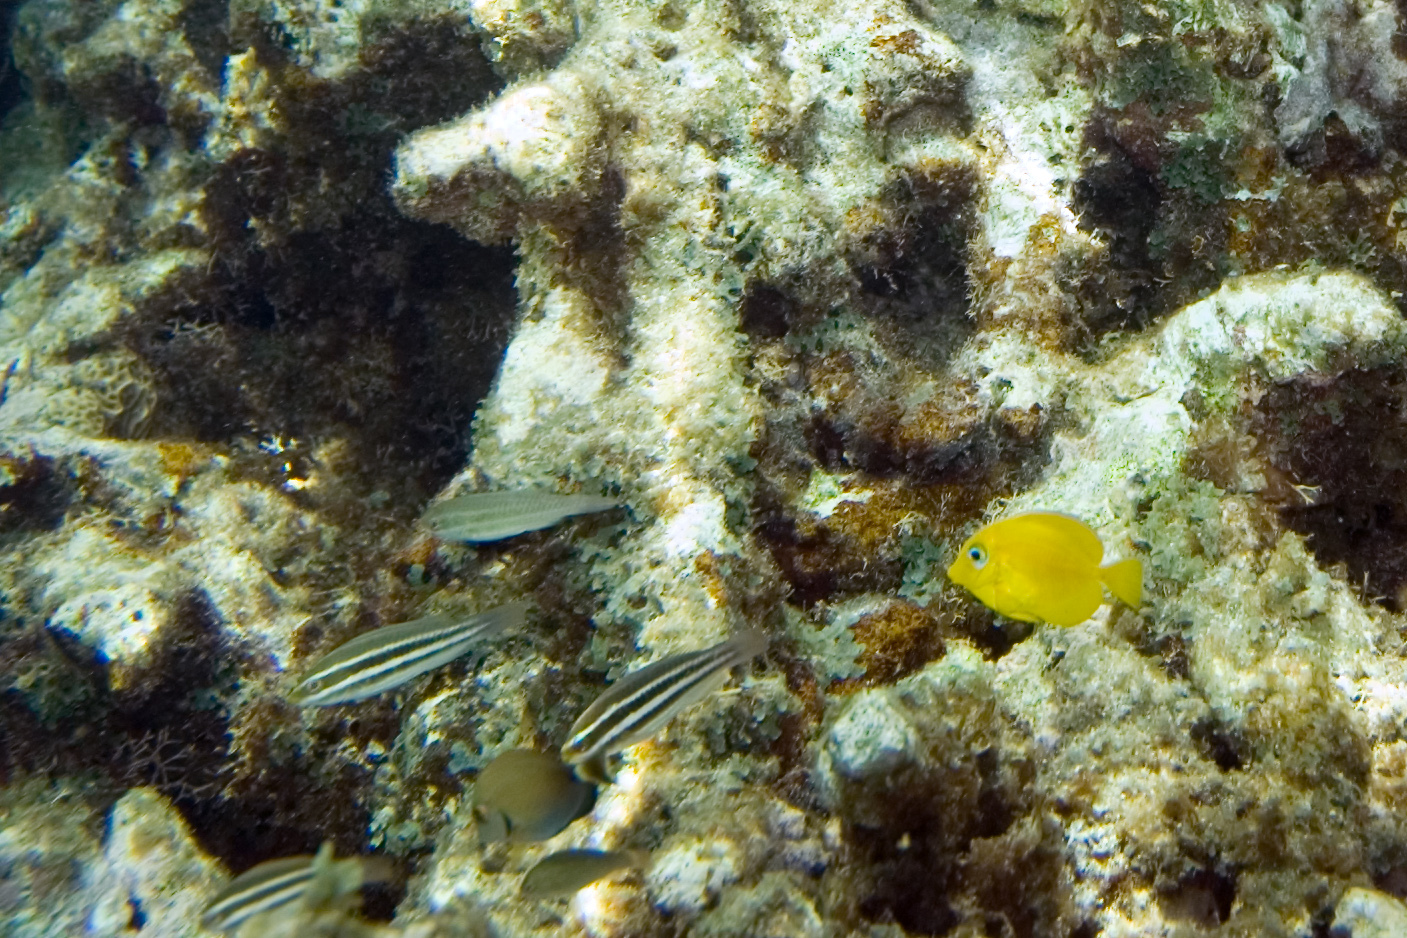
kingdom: Animalia
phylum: Chordata
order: Perciformes
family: Scaridae
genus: Scarus
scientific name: Scarus iseri
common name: Striped parrotfish
